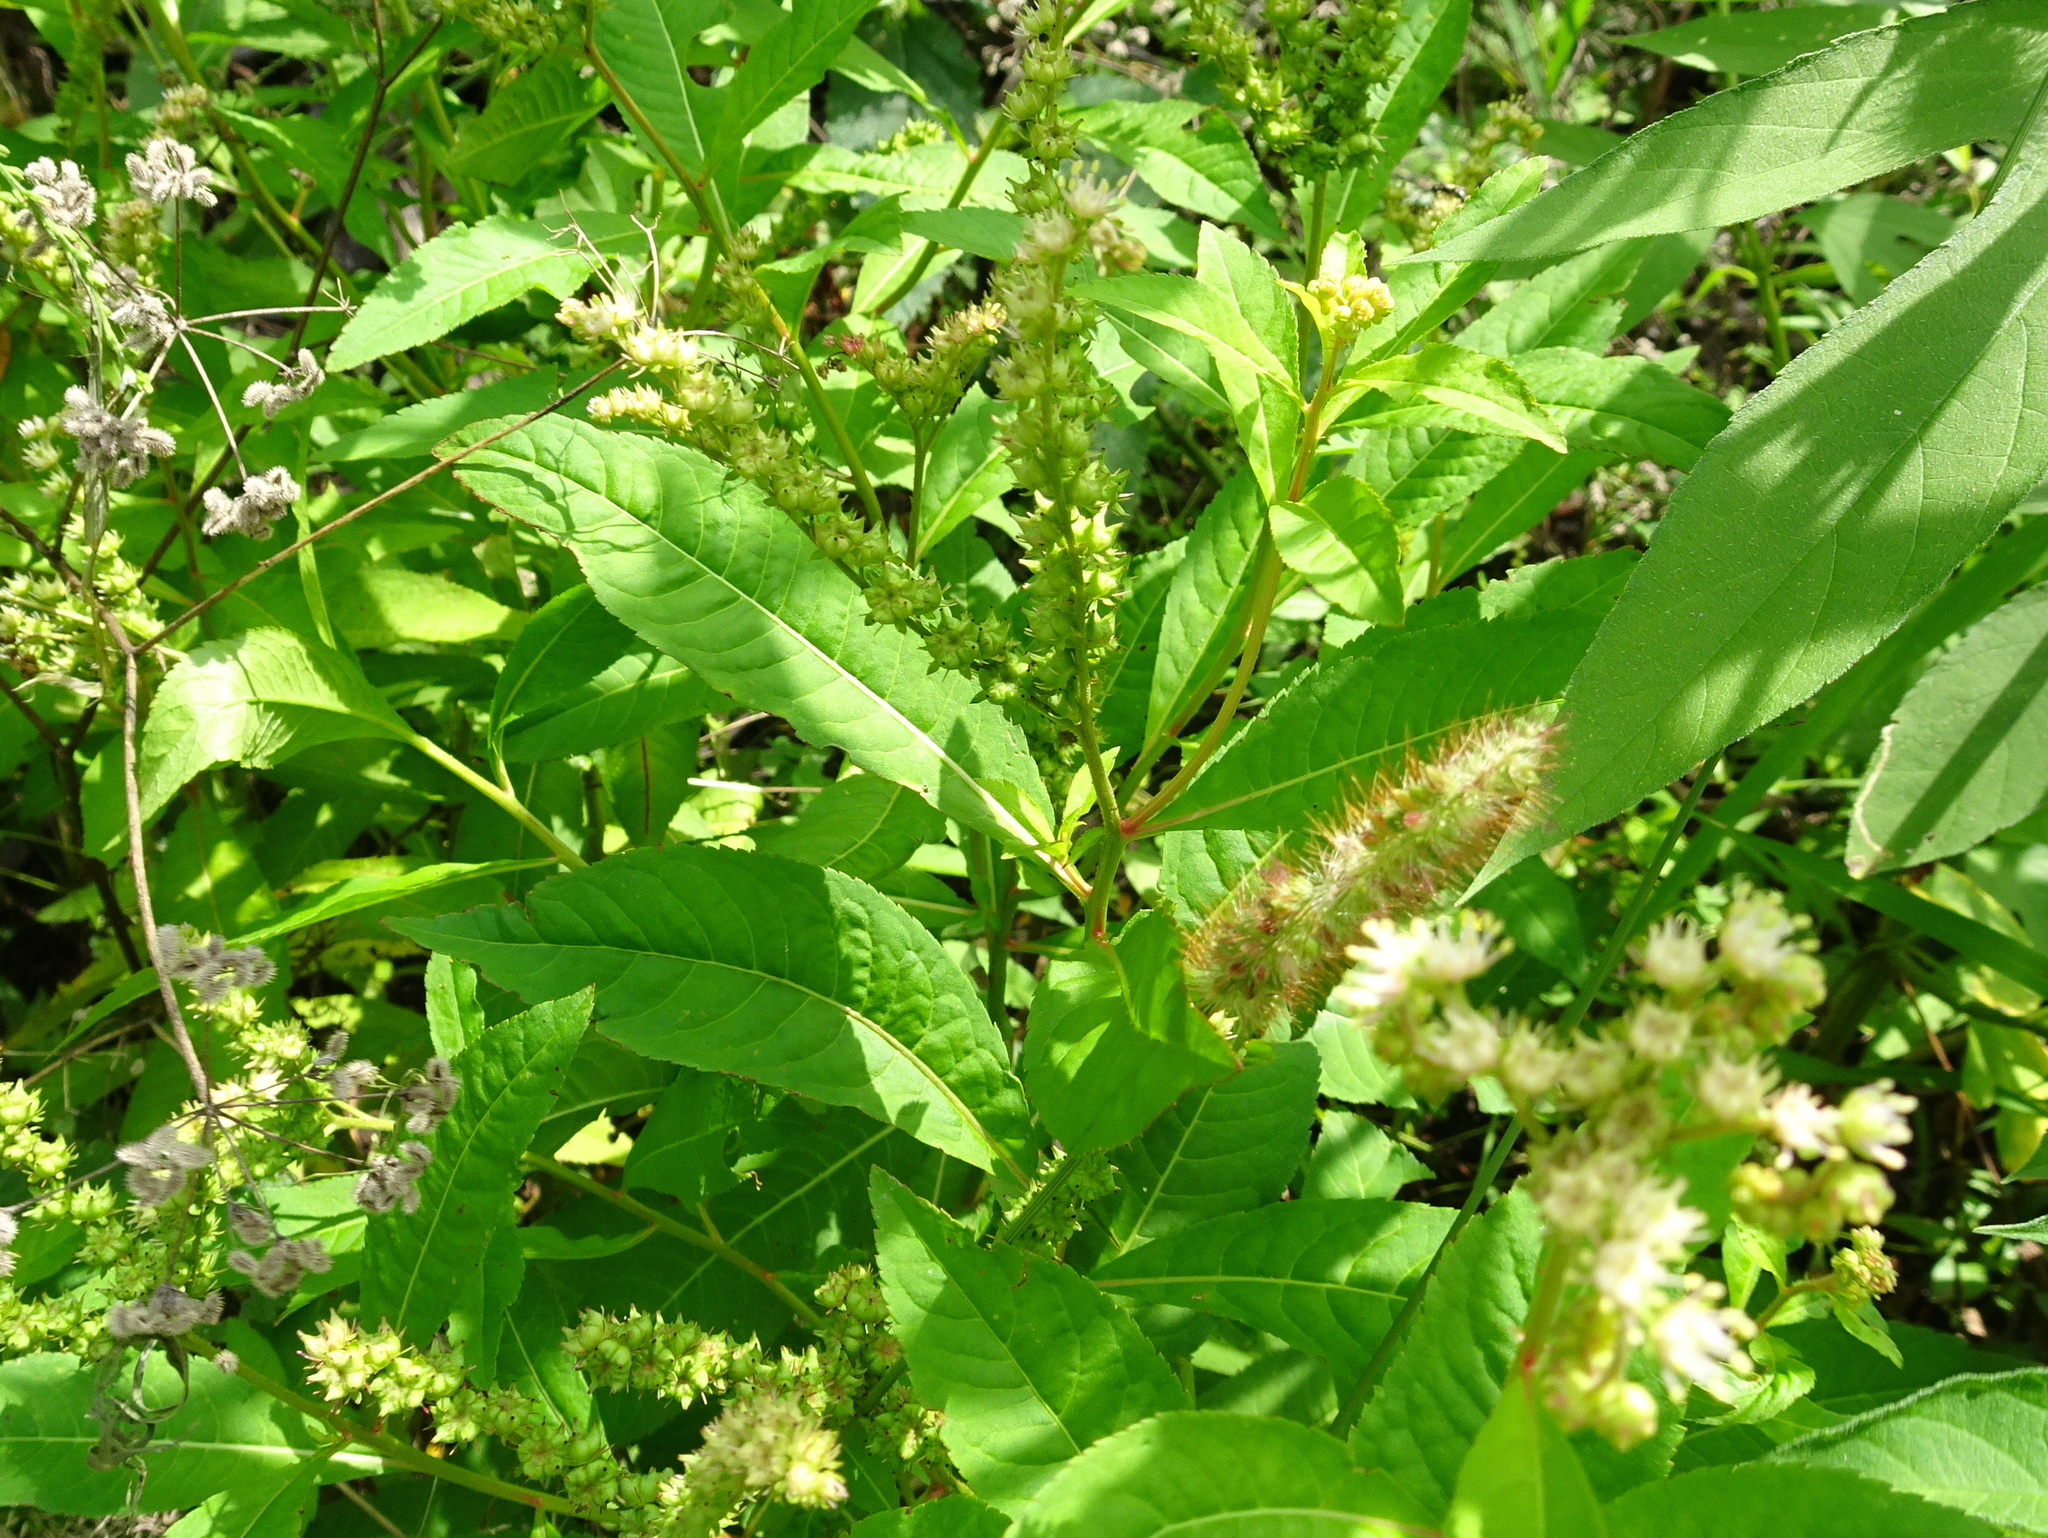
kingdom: Plantae
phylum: Tracheophyta
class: Magnoliopsida
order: Saxifragales
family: Penthoraceae
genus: Penthorum
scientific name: Penthorum sedoides
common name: Ditch stonecrop
